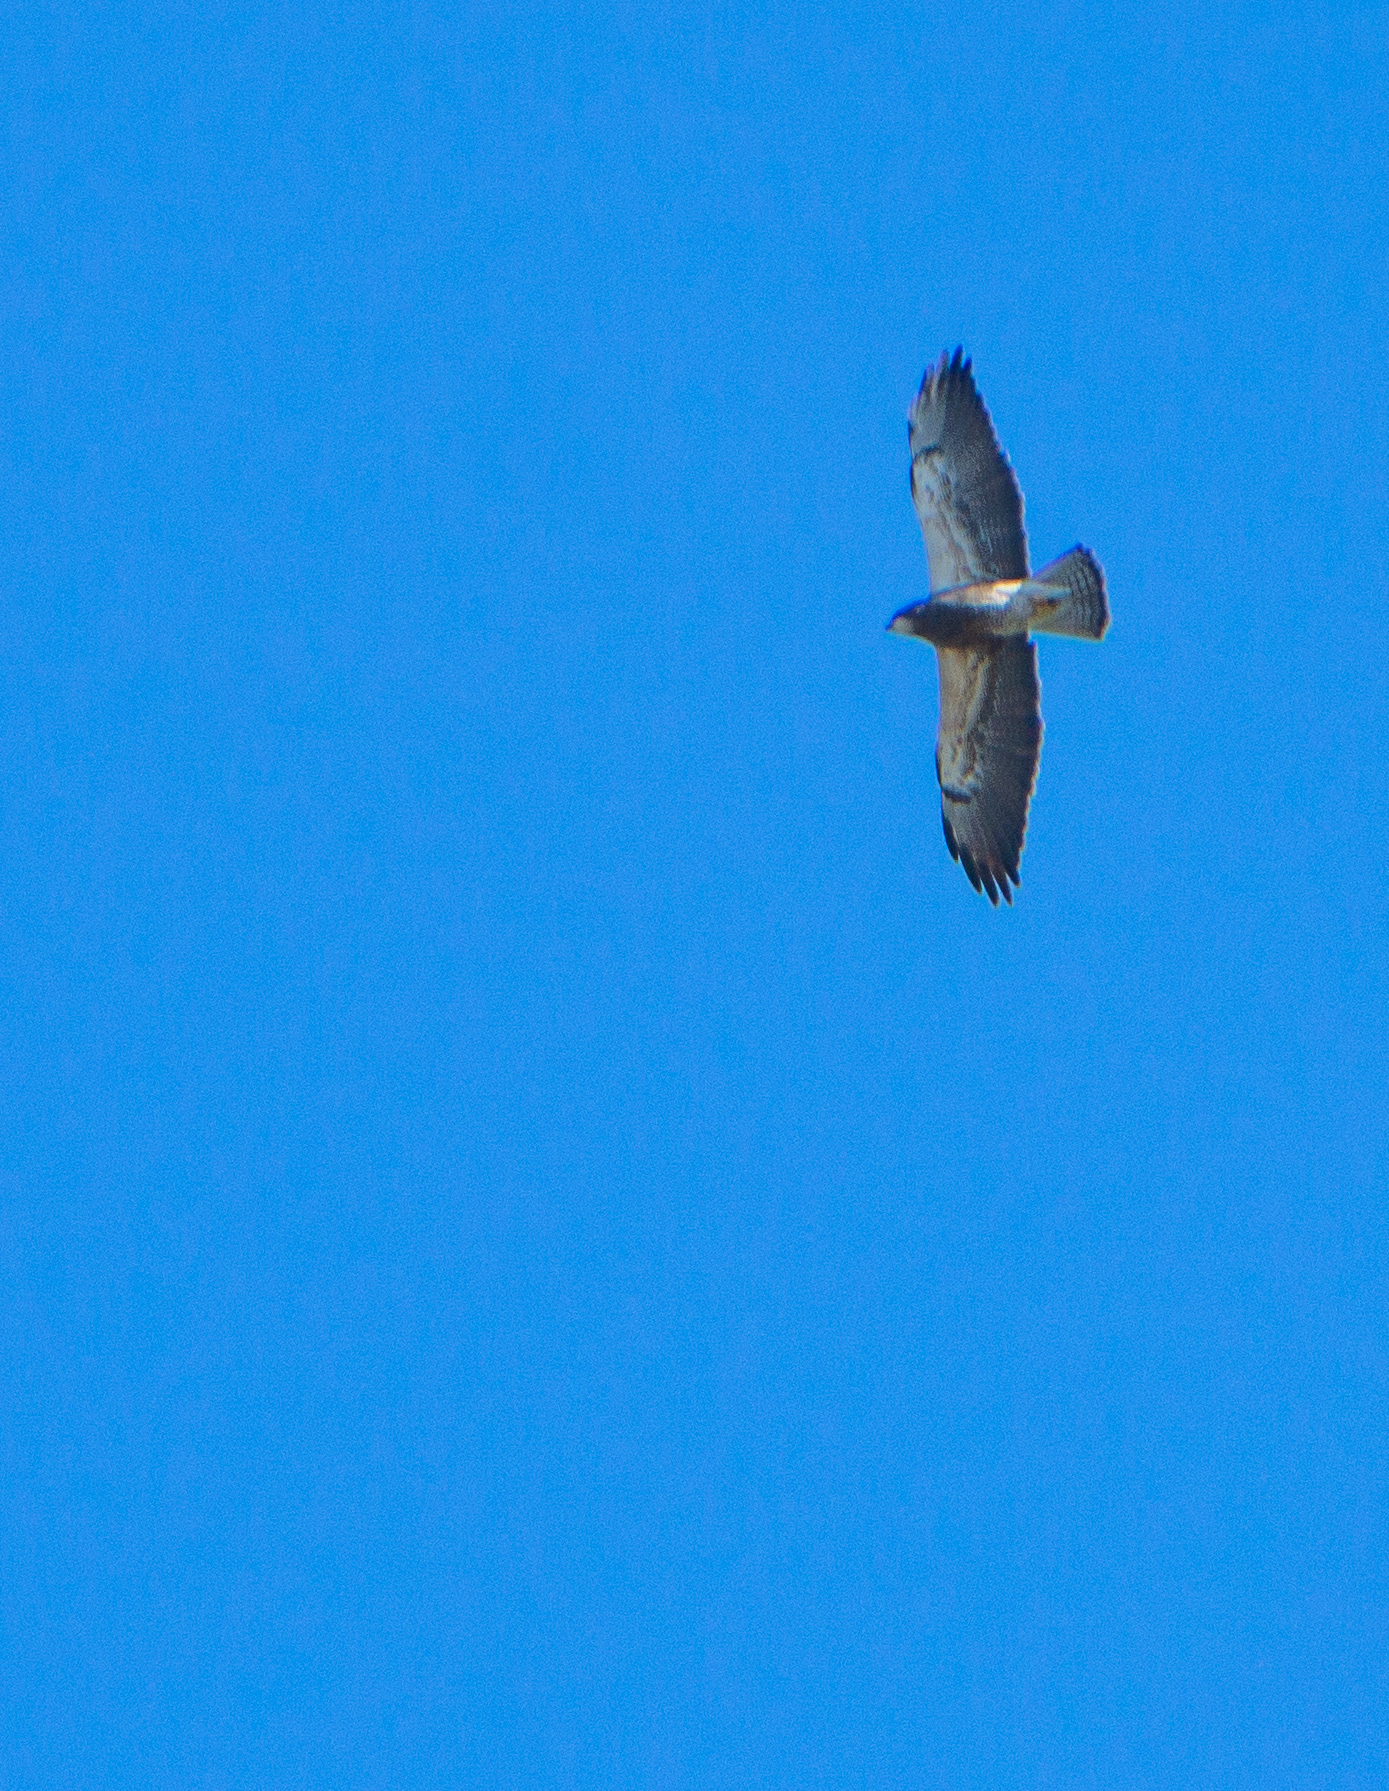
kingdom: Animalia
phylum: Chordata
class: Aves
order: Accipitriformes
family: Accipitridae
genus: Buteo
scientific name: Buteo swainsoni
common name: Swainson's hawk
